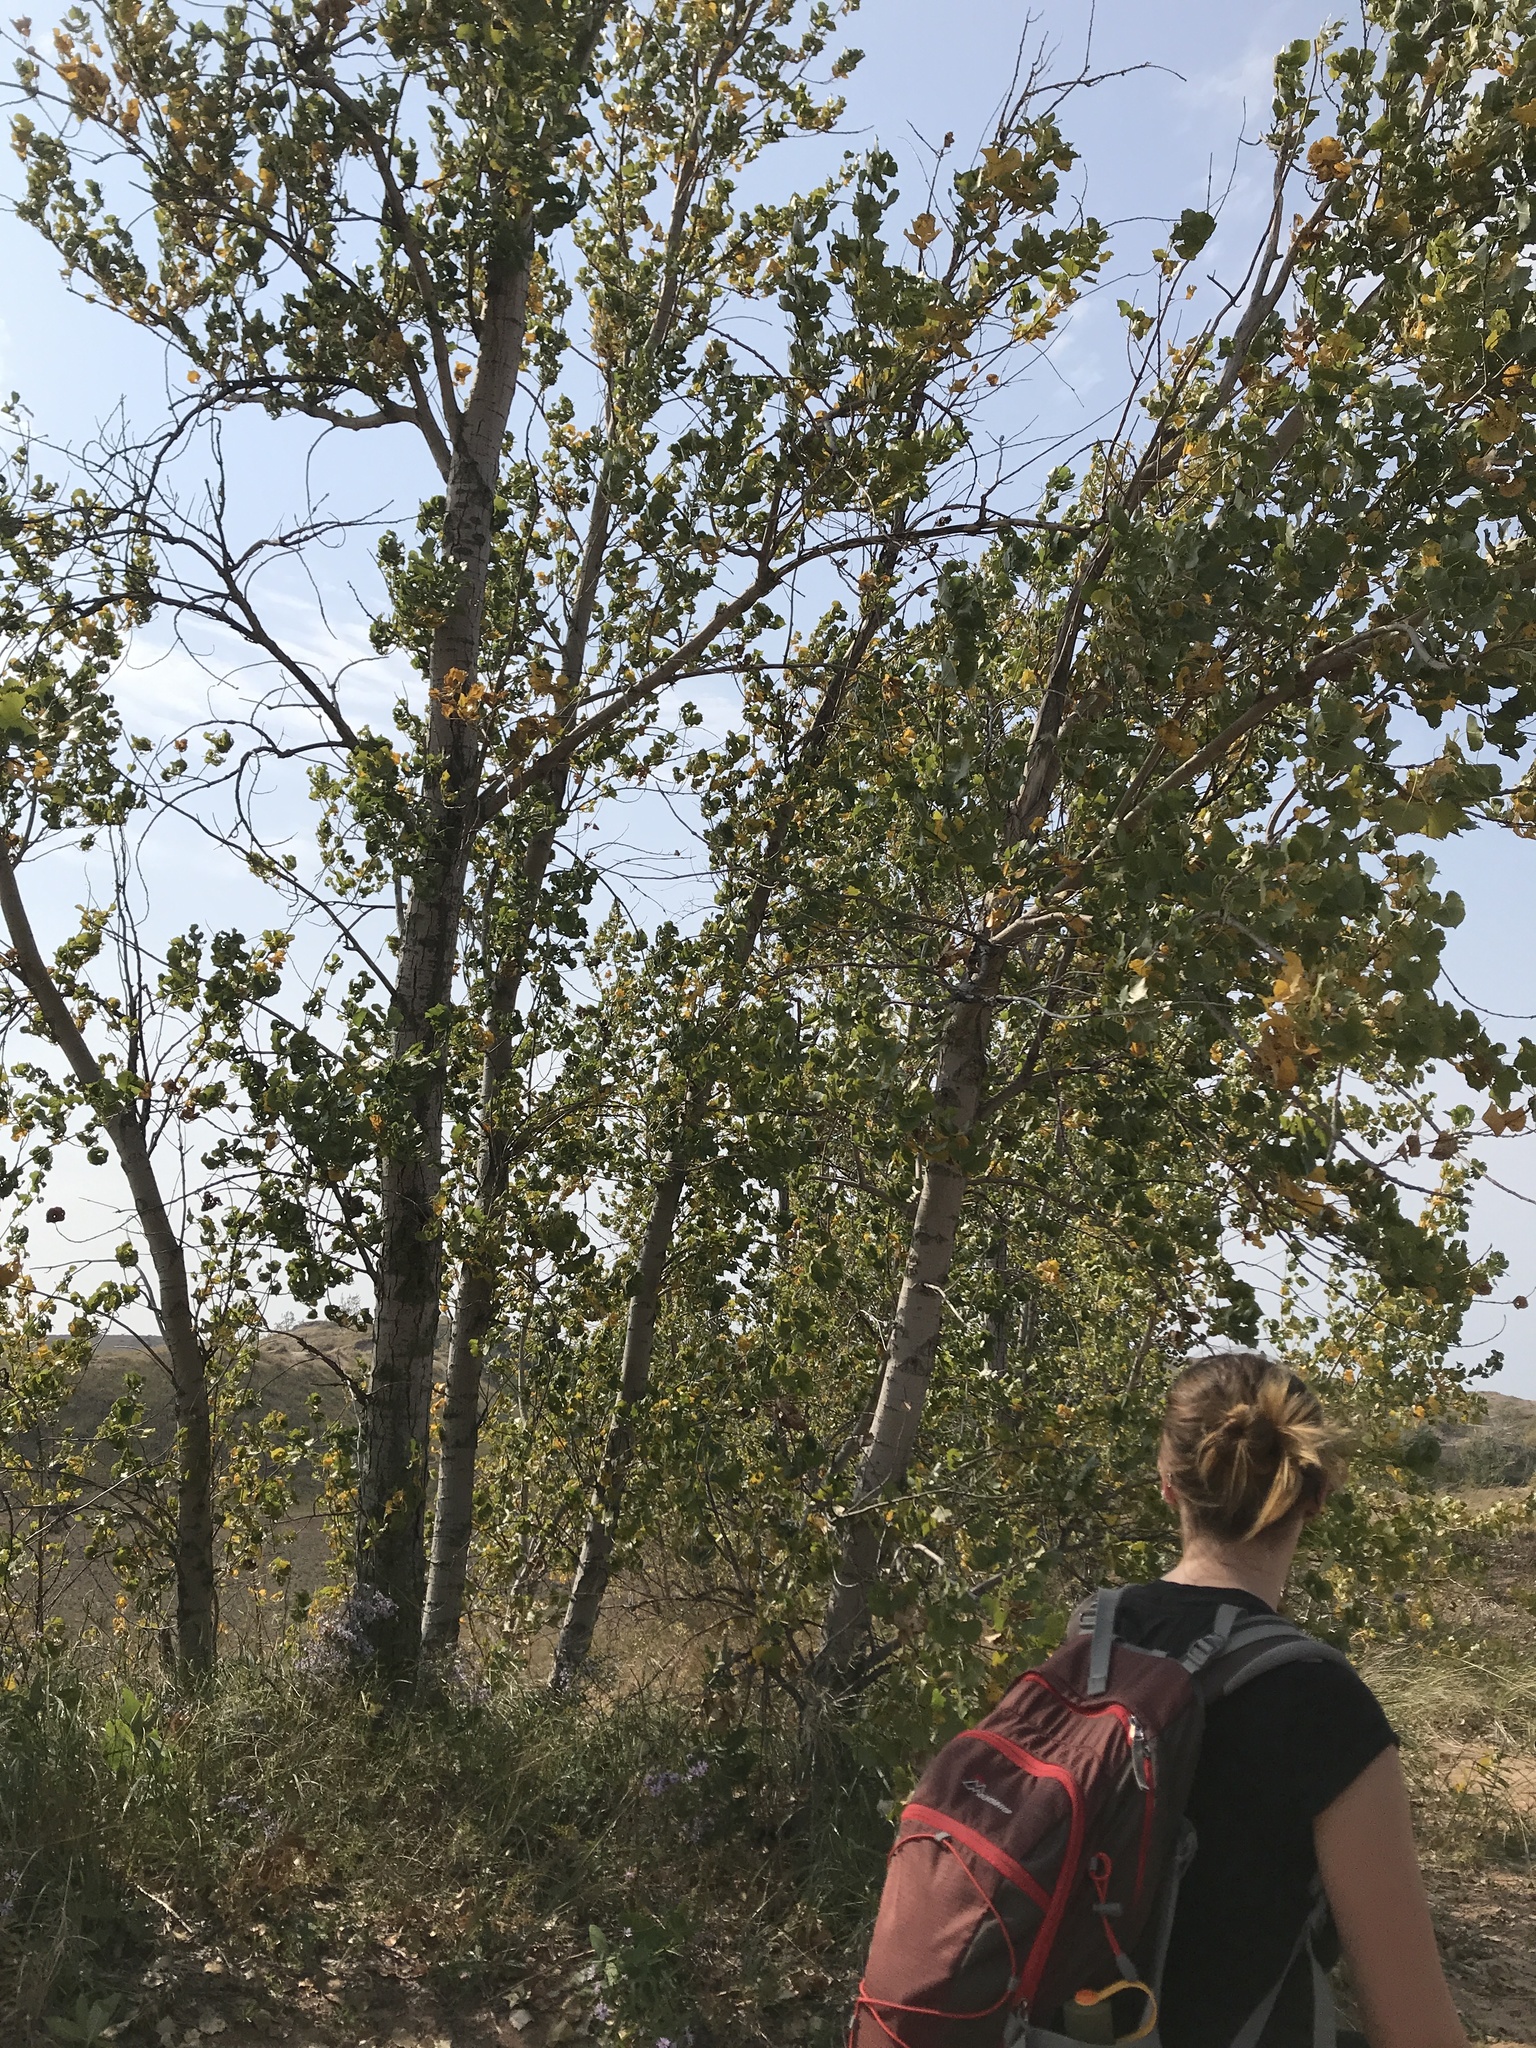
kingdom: Plantae
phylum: Tracheophyta
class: Magnoliopsida
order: Malpighiales
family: Salicaceae
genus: Populus
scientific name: Populus deltoides
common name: Eastern cottonwood
